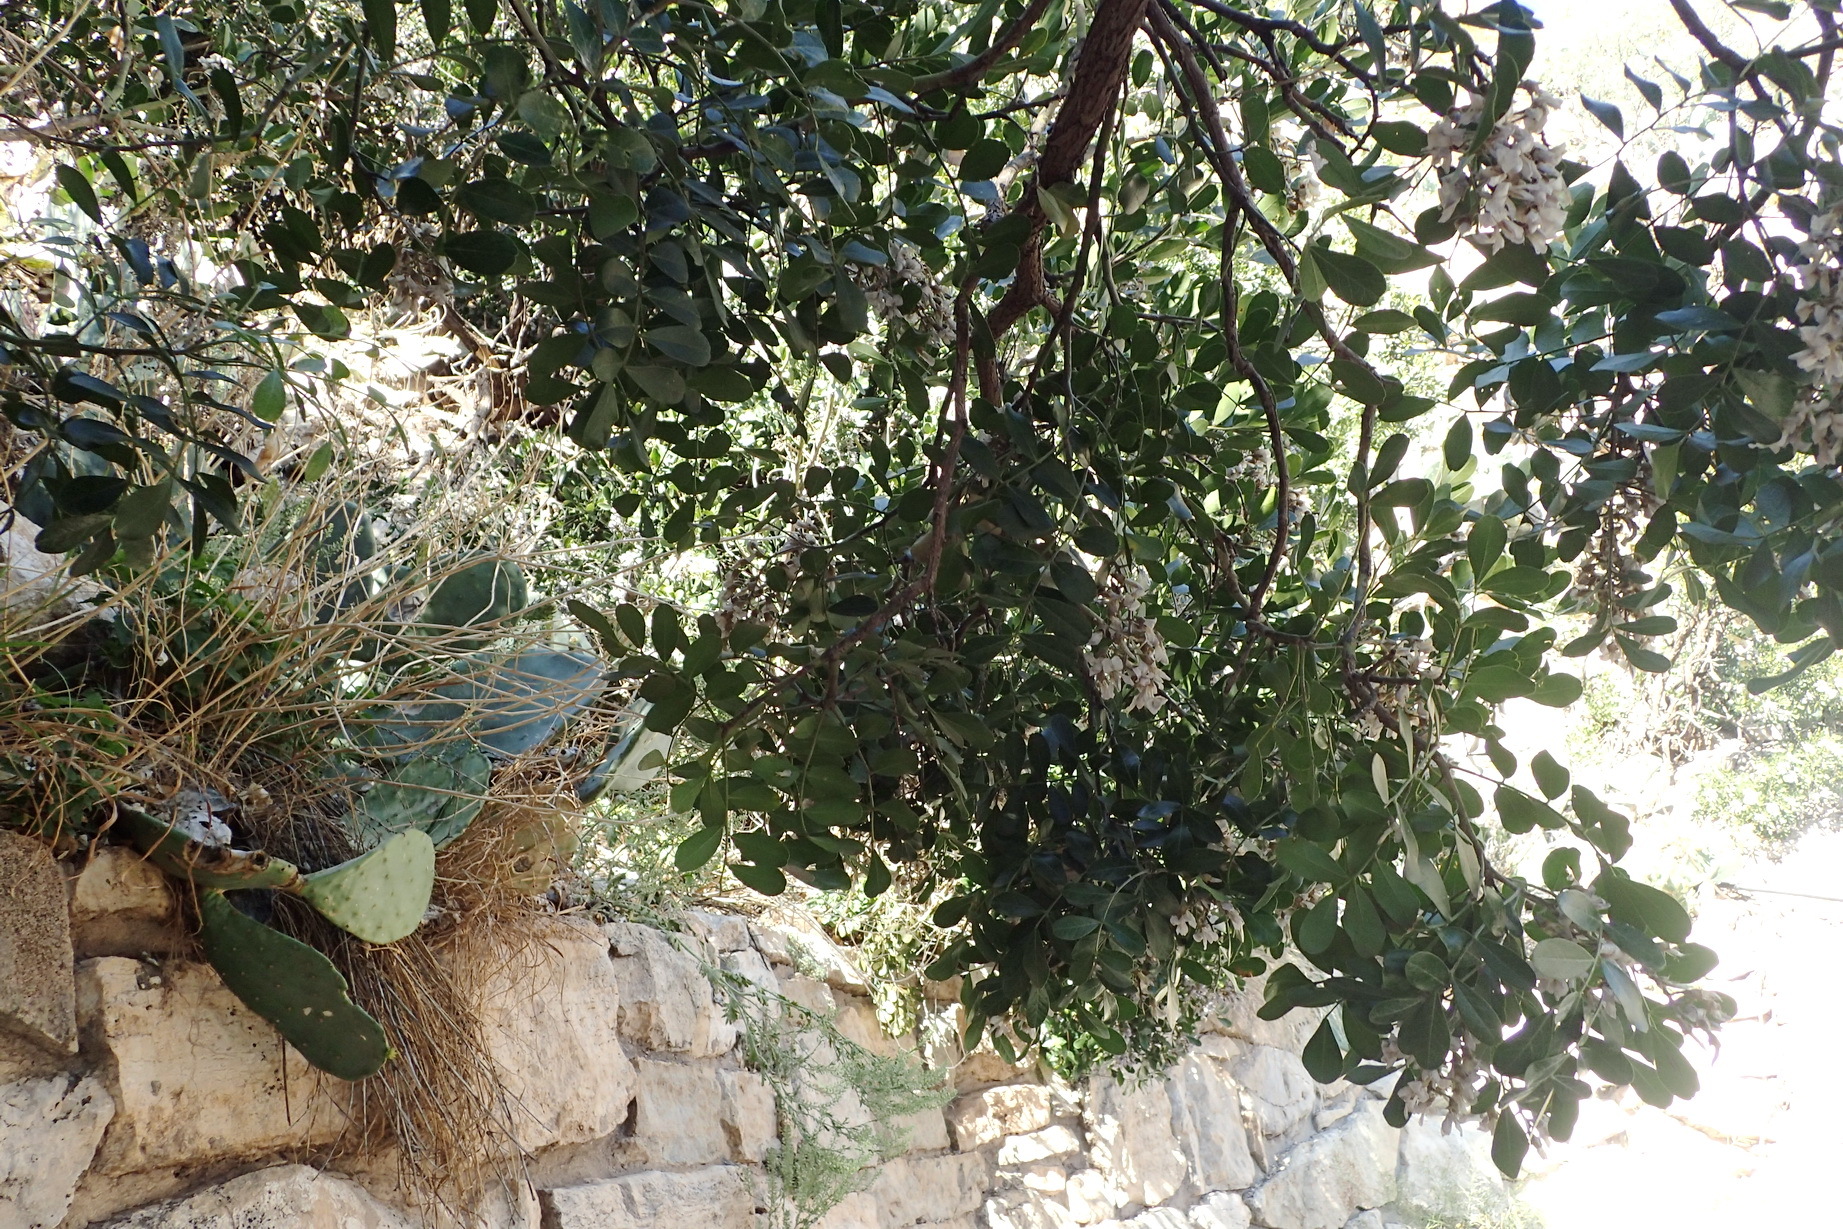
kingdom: Plantae
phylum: Tracheophyta
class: Magnoliopsida
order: Fabales
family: Fabaceae
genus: Dermatophyllum
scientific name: Dermatophyllum secundiflorum
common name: Texas-mountain-laurel
